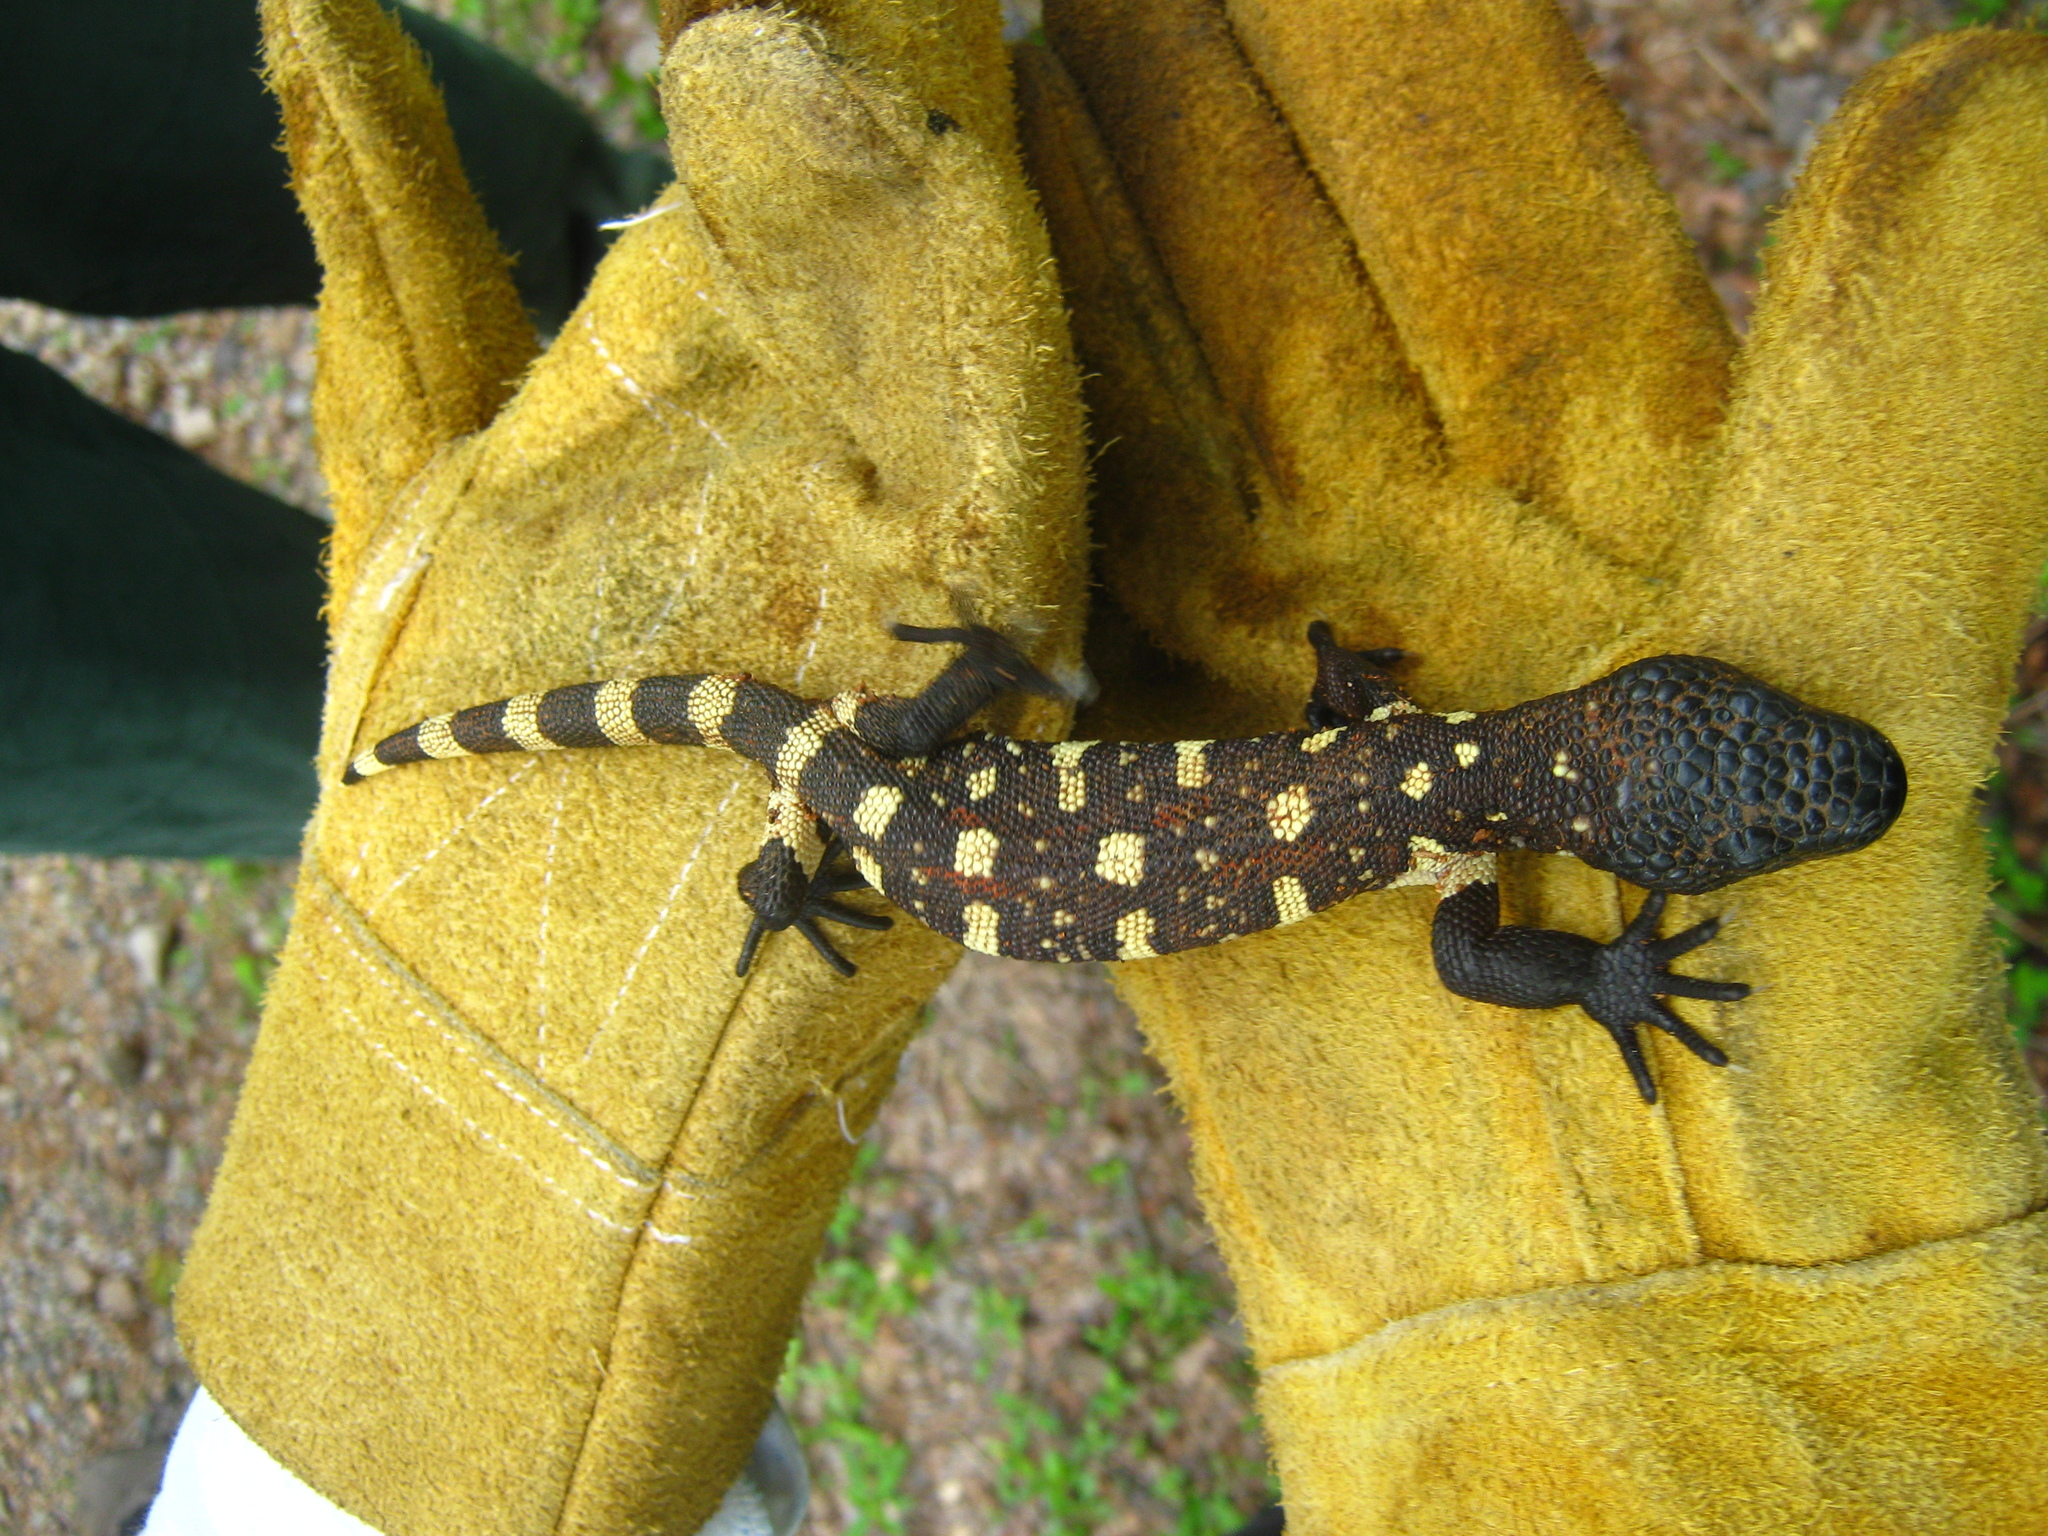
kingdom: Animalia
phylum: Chordata
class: Squamata
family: Helodermatidae
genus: Heloderma
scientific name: Heloderma horridum
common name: Mexican beaded lizard
